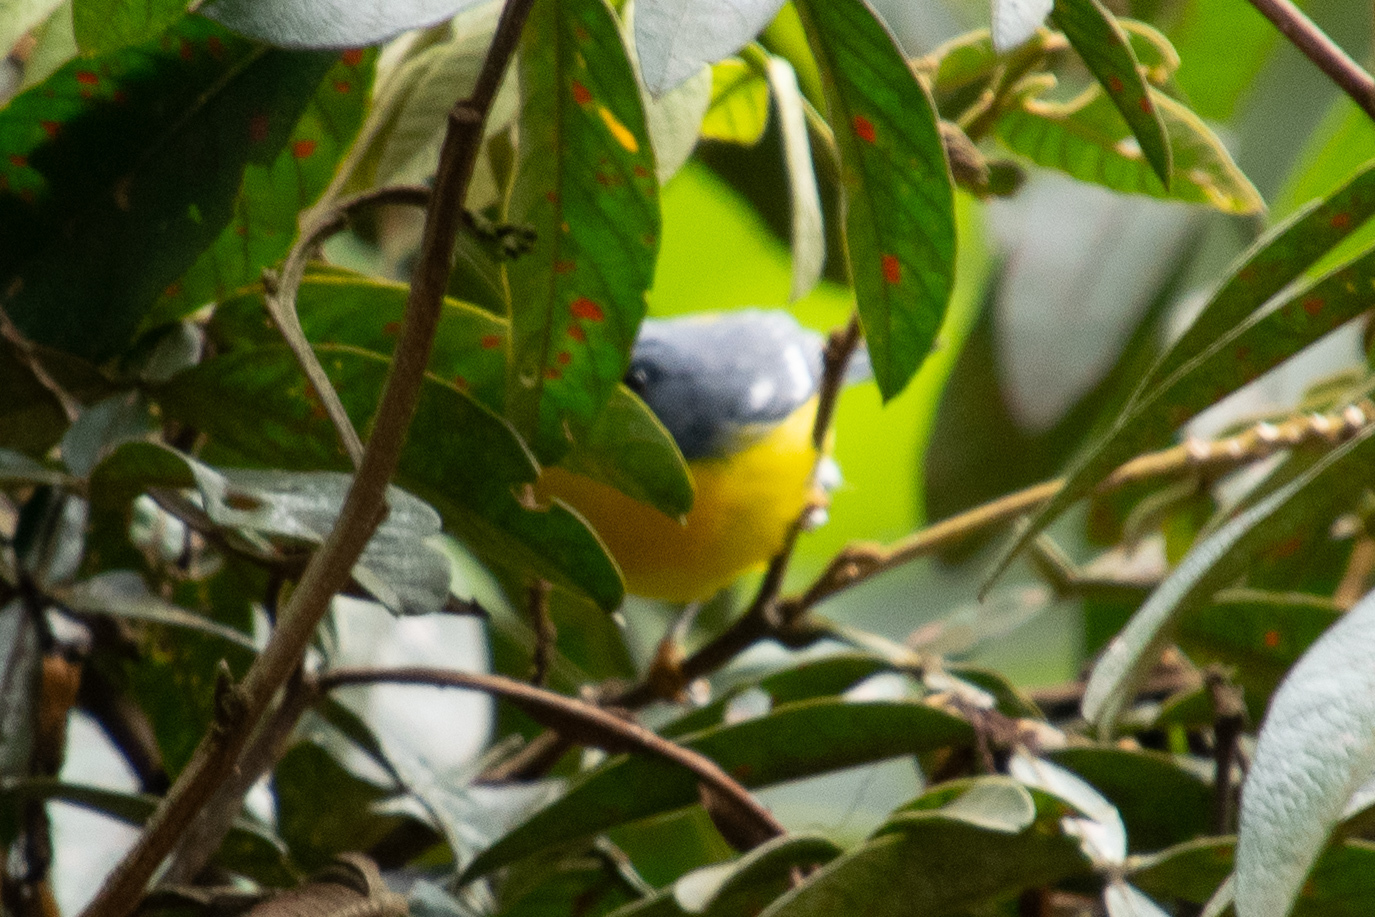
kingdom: Animalia
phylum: Chordata
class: Aves
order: Passeriformes
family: Parulidae
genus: Setophaga
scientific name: Setophaga pitiayumi
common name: Tropical parula
